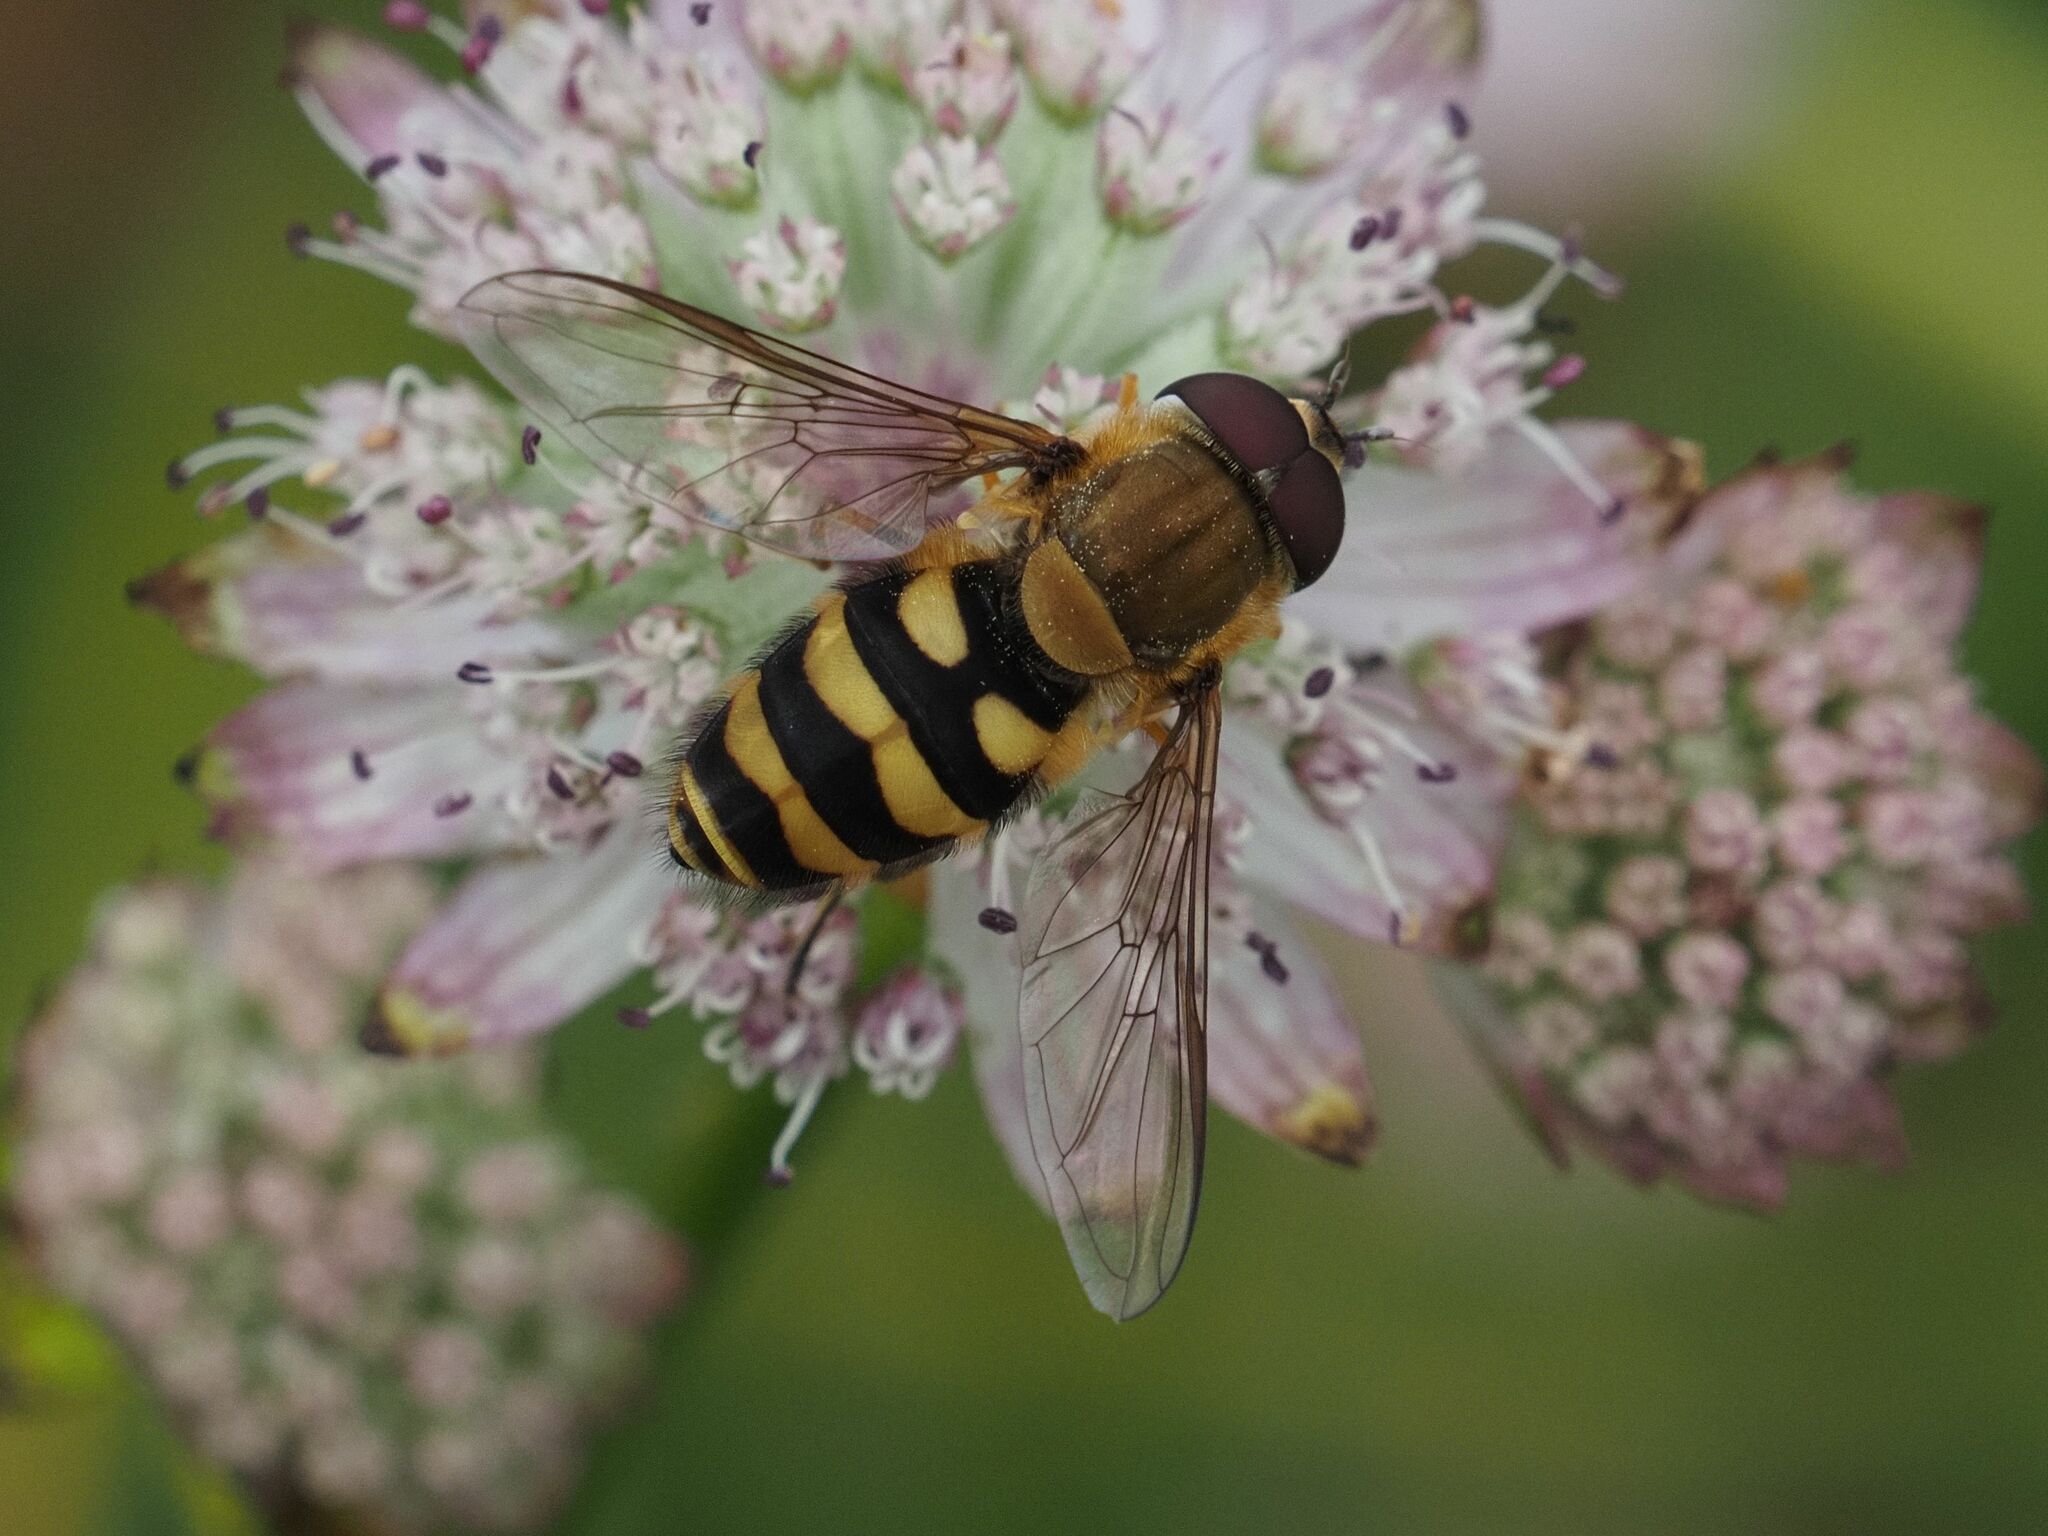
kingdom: Animalia
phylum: Arthropoda
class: Insecta
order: Diptera
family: Syrphidae
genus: Syrphus
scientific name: Syrphus
